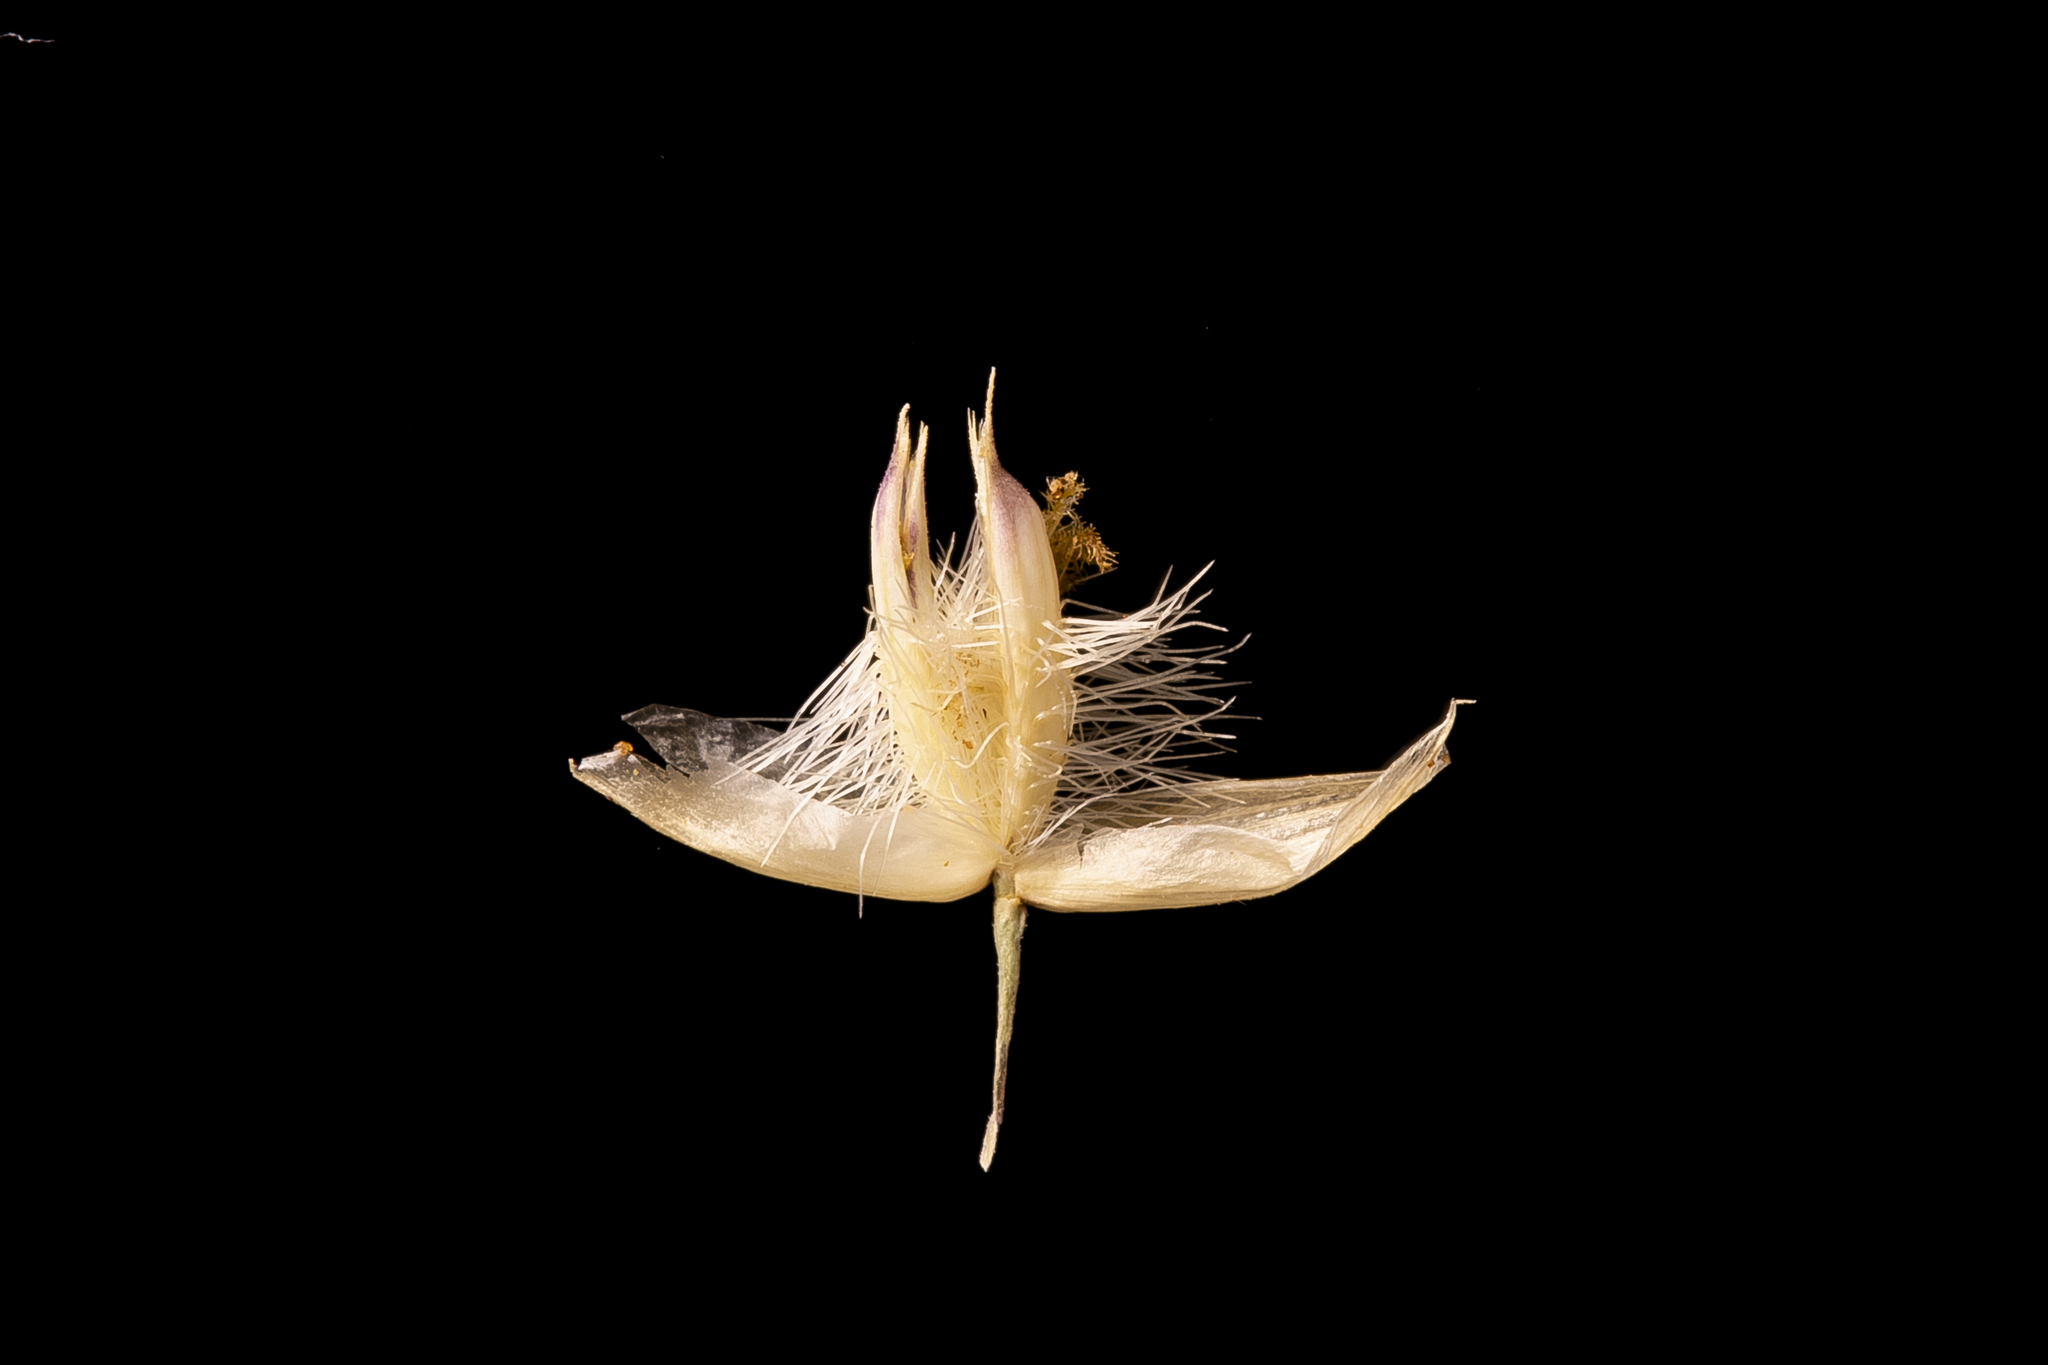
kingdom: Plantae
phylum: Tracheophyta
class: Liliopsida
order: Poales
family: Poaceae
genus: Eriachne
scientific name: Eriachne mucronata
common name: Mountain wanderrie grass
